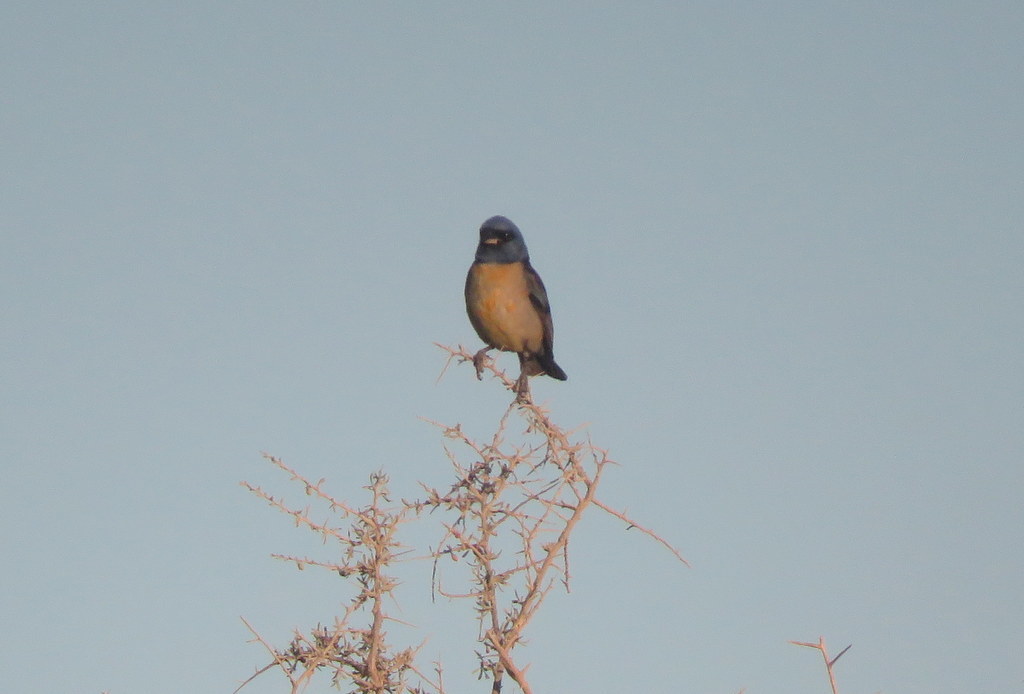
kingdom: Animalia
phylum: Chordata
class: Aves
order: Passeriformes
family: Thraupidae
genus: Rauenia
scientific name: Rauenia bonariensis
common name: Blue-and-yellow tanager
